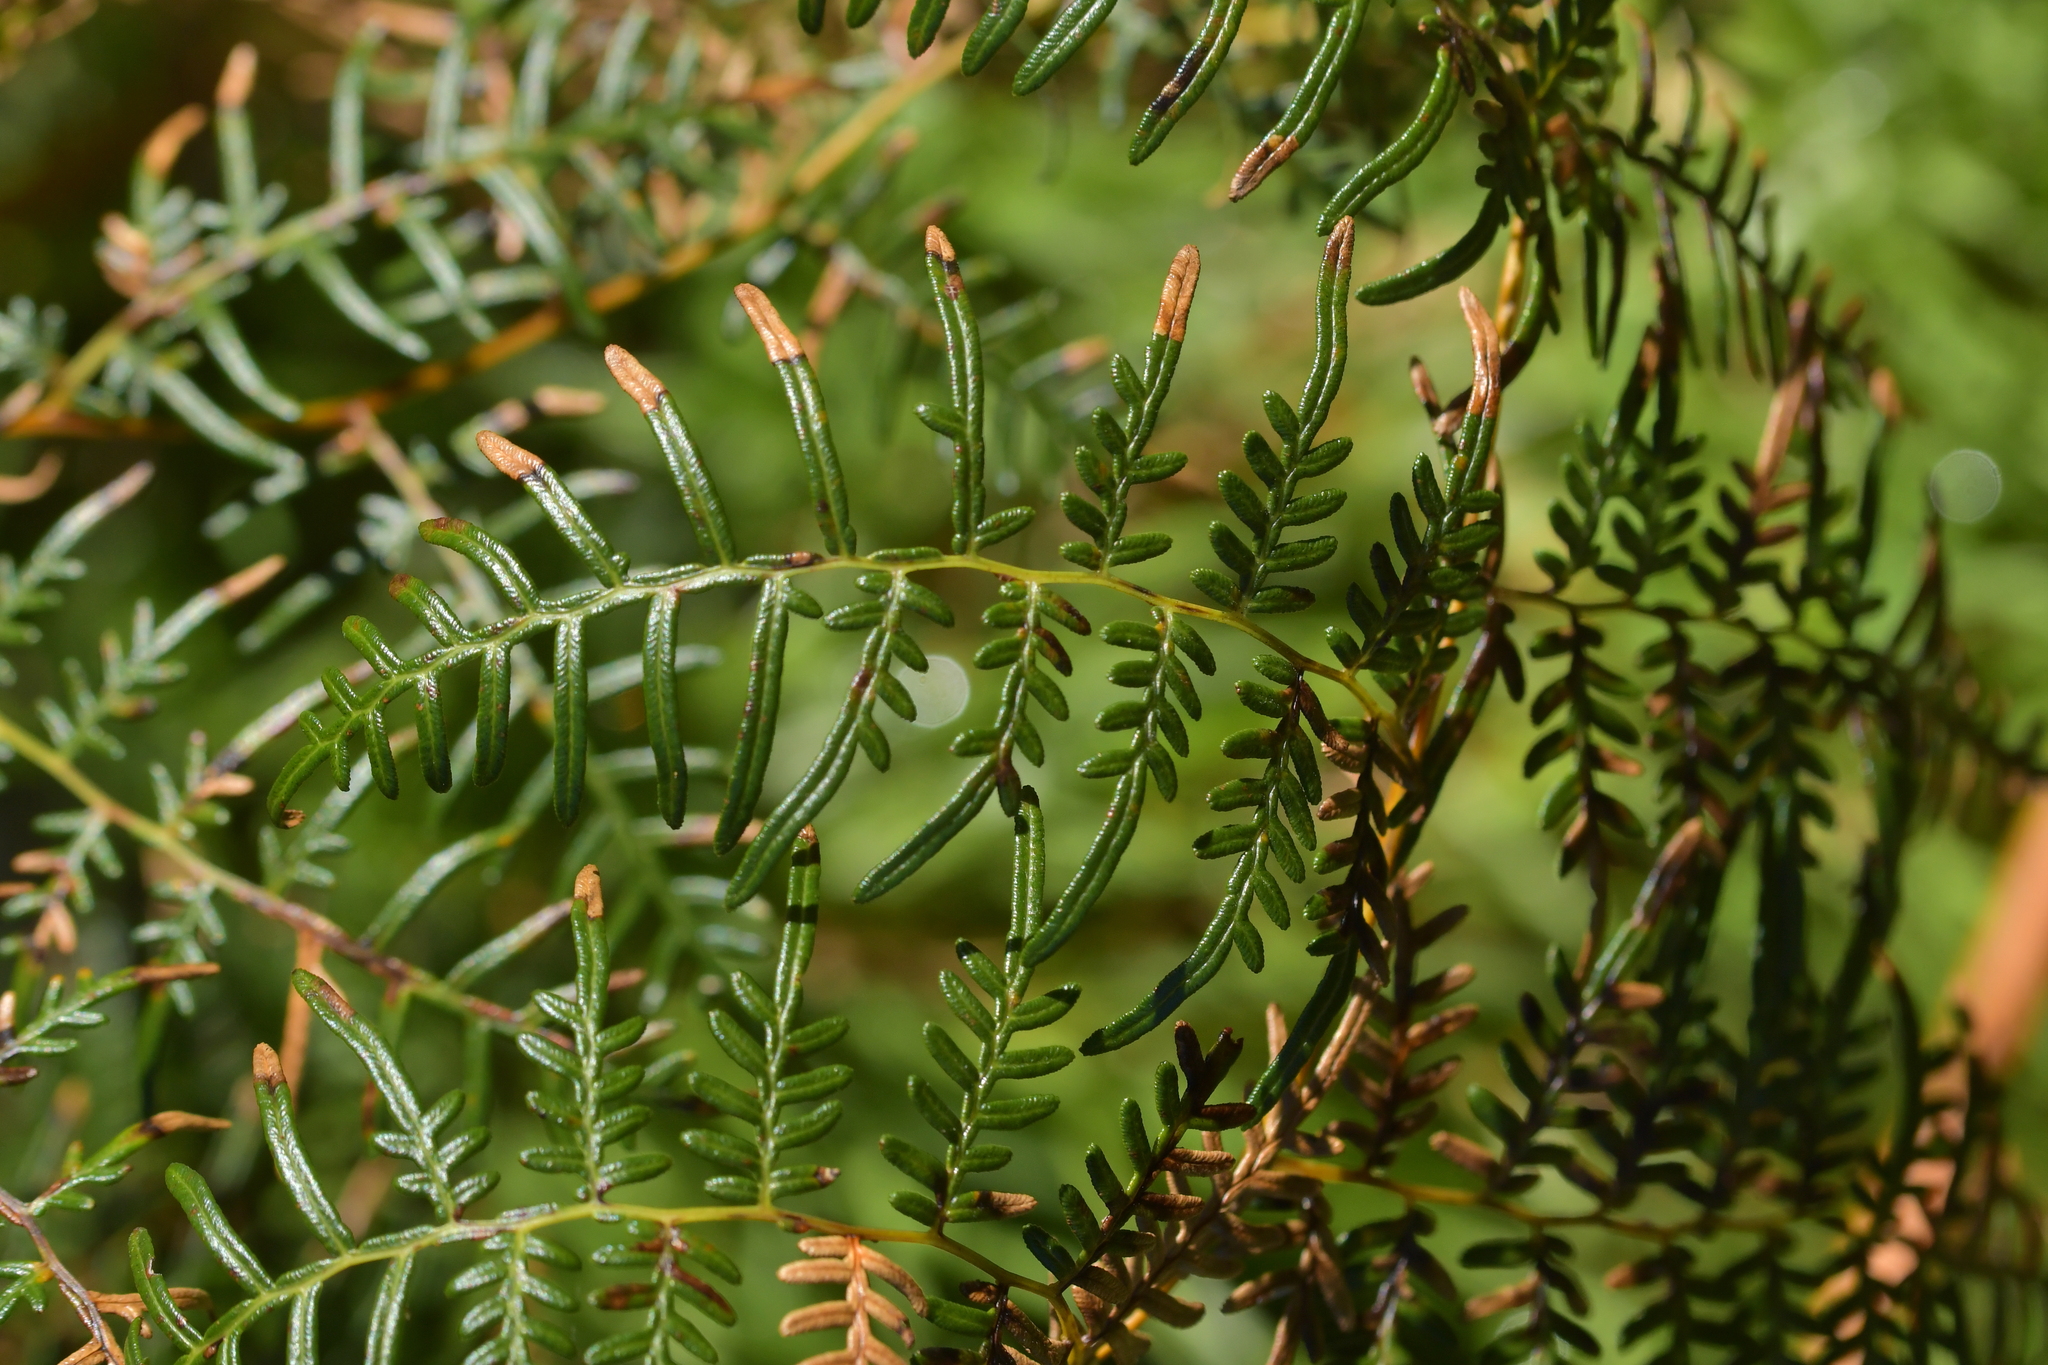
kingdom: Plantae
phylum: Tracheophyta
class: Polypodiopsida
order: Polypodiales
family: Dennstaedtiaceae
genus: Pteridium
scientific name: Pteridium esculentum
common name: Bracken fern
